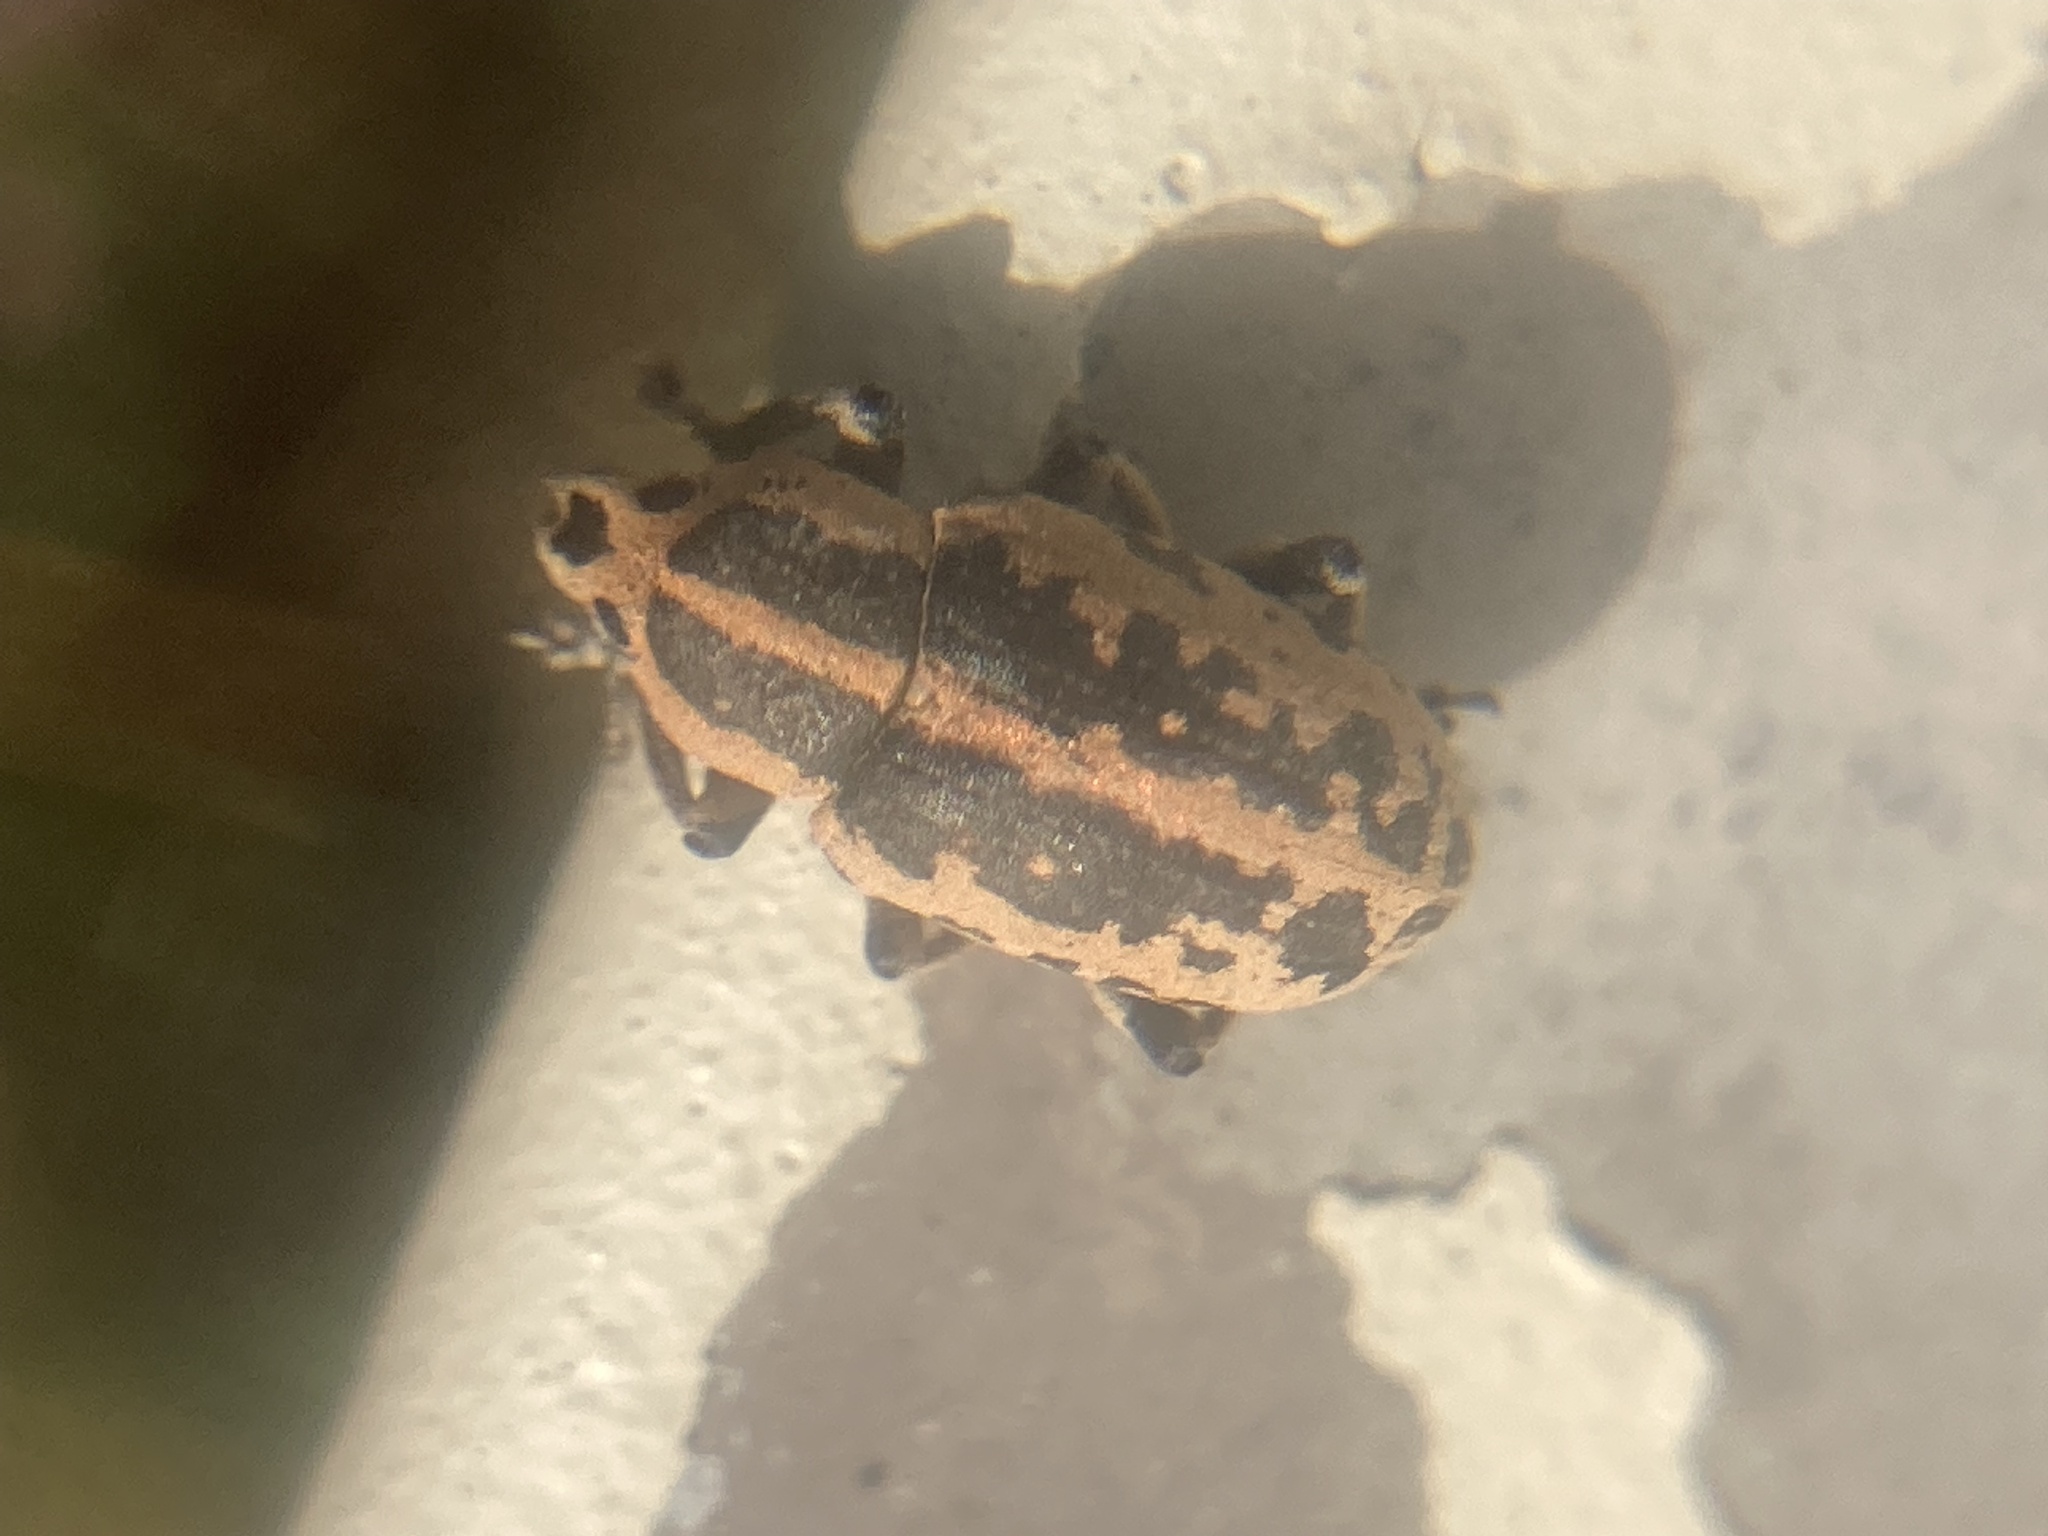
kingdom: Animalia
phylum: Arthropoda
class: Insecta
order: Coleoptera
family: Curculionidae
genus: Eudiagogus
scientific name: Eudiagogus rosenschoeldi
